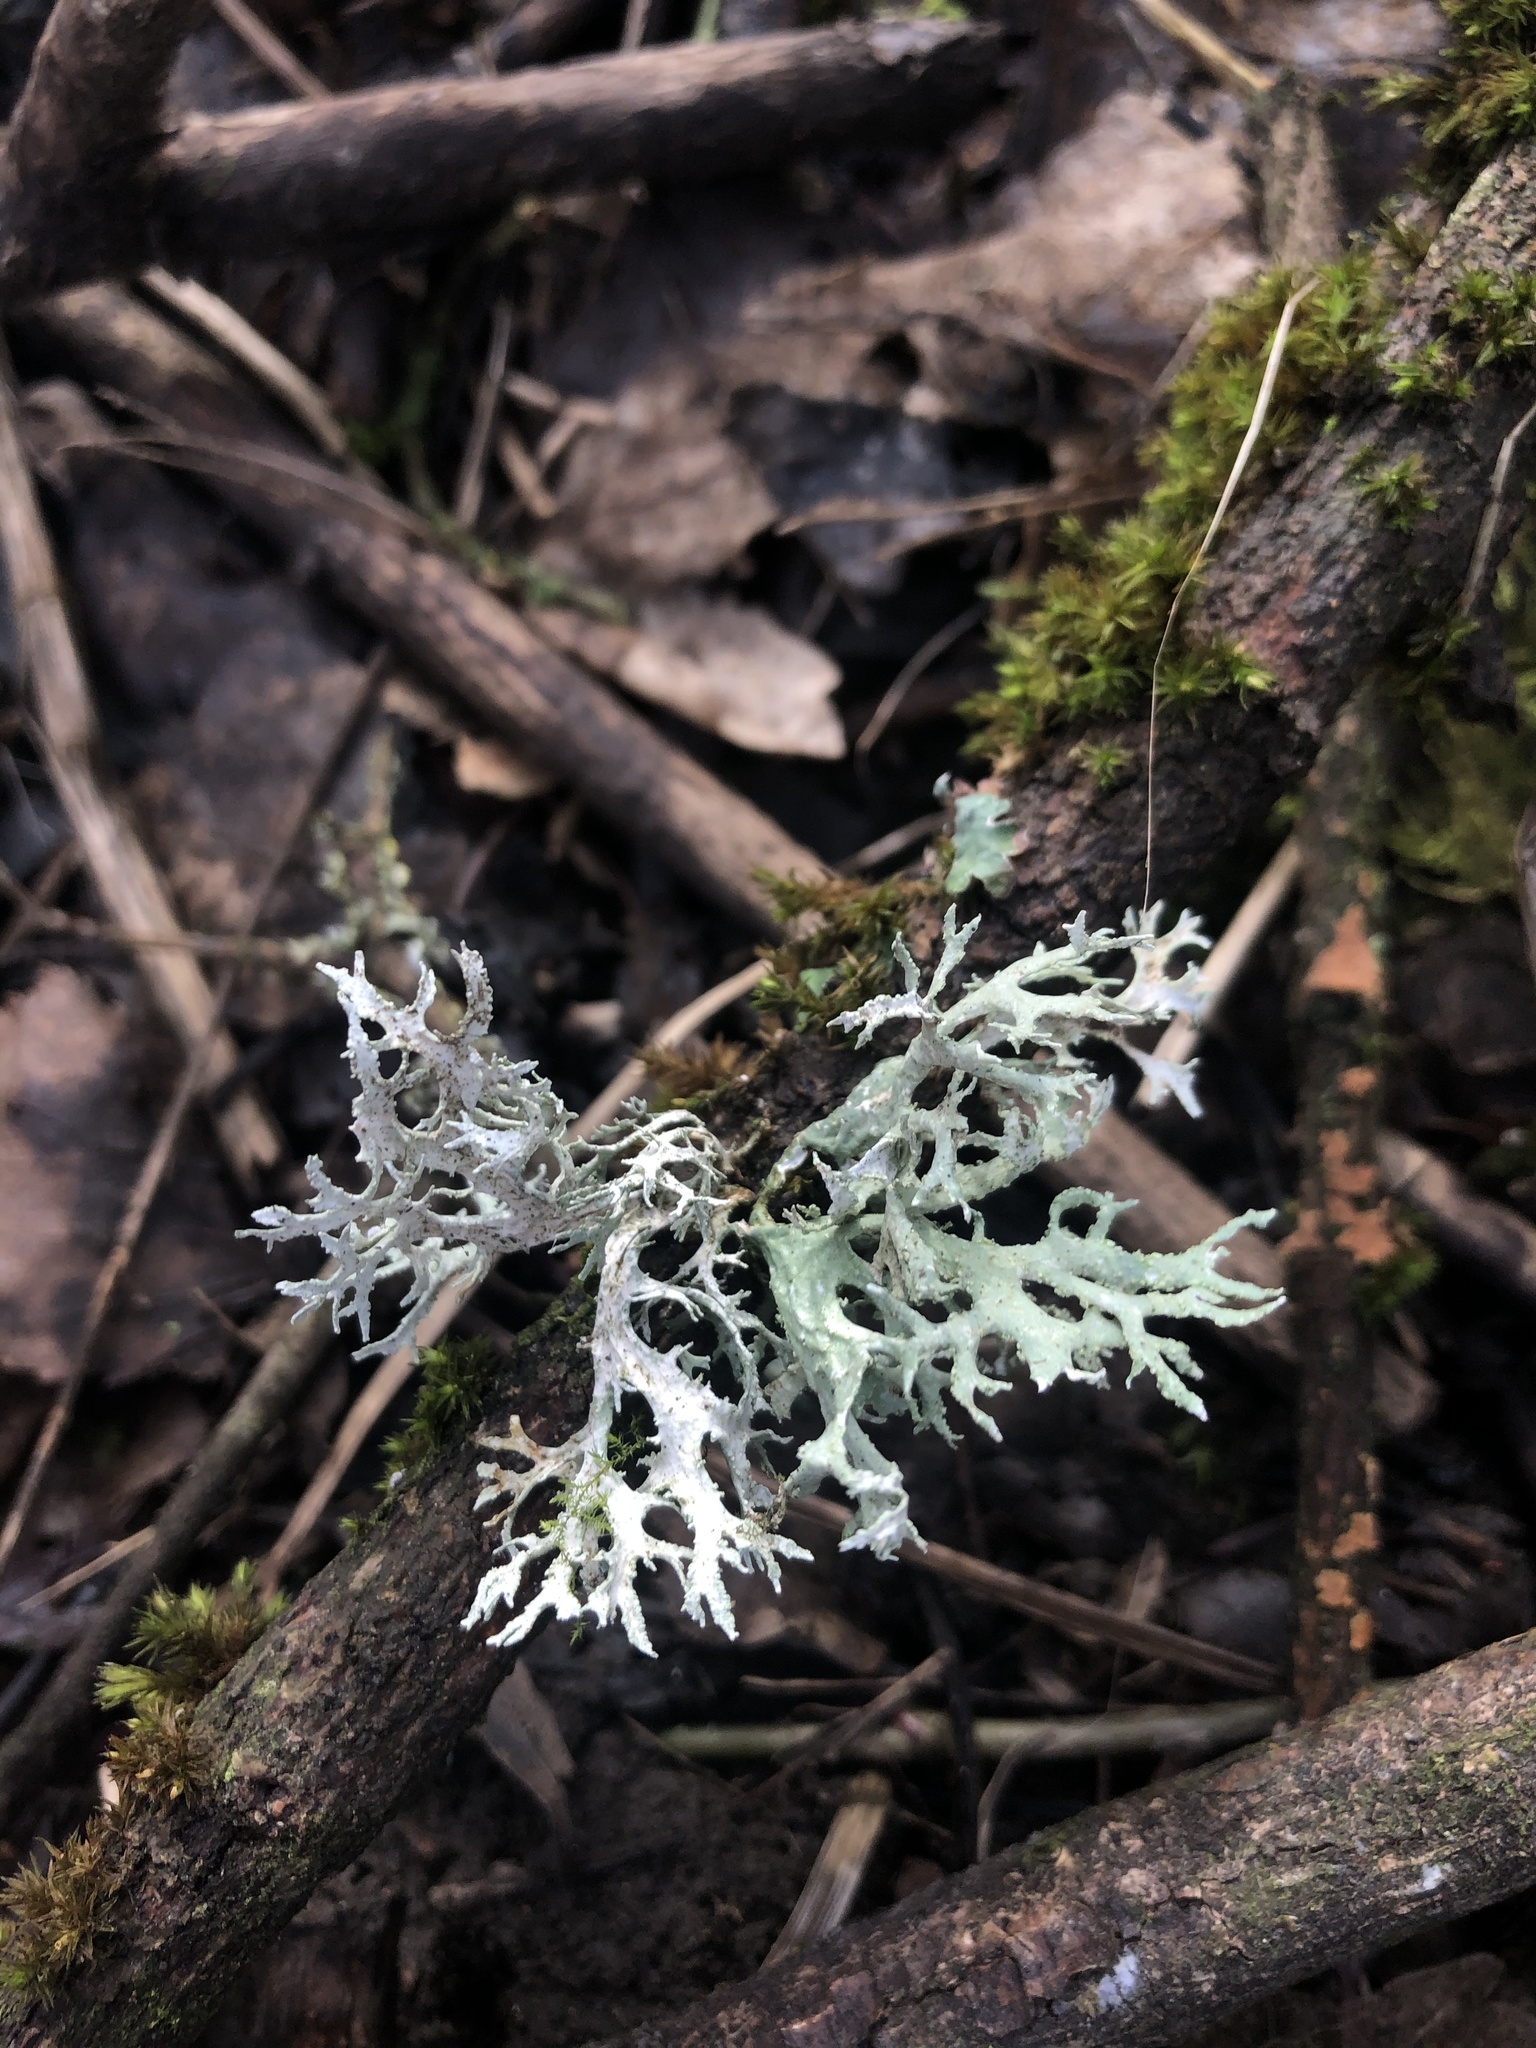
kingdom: Fungi
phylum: Ascomycota
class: Lecanoromycetes
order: Lecanorales
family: Parmeliaceae
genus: Evernia
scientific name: Evernia prunastri
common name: Oak moss
